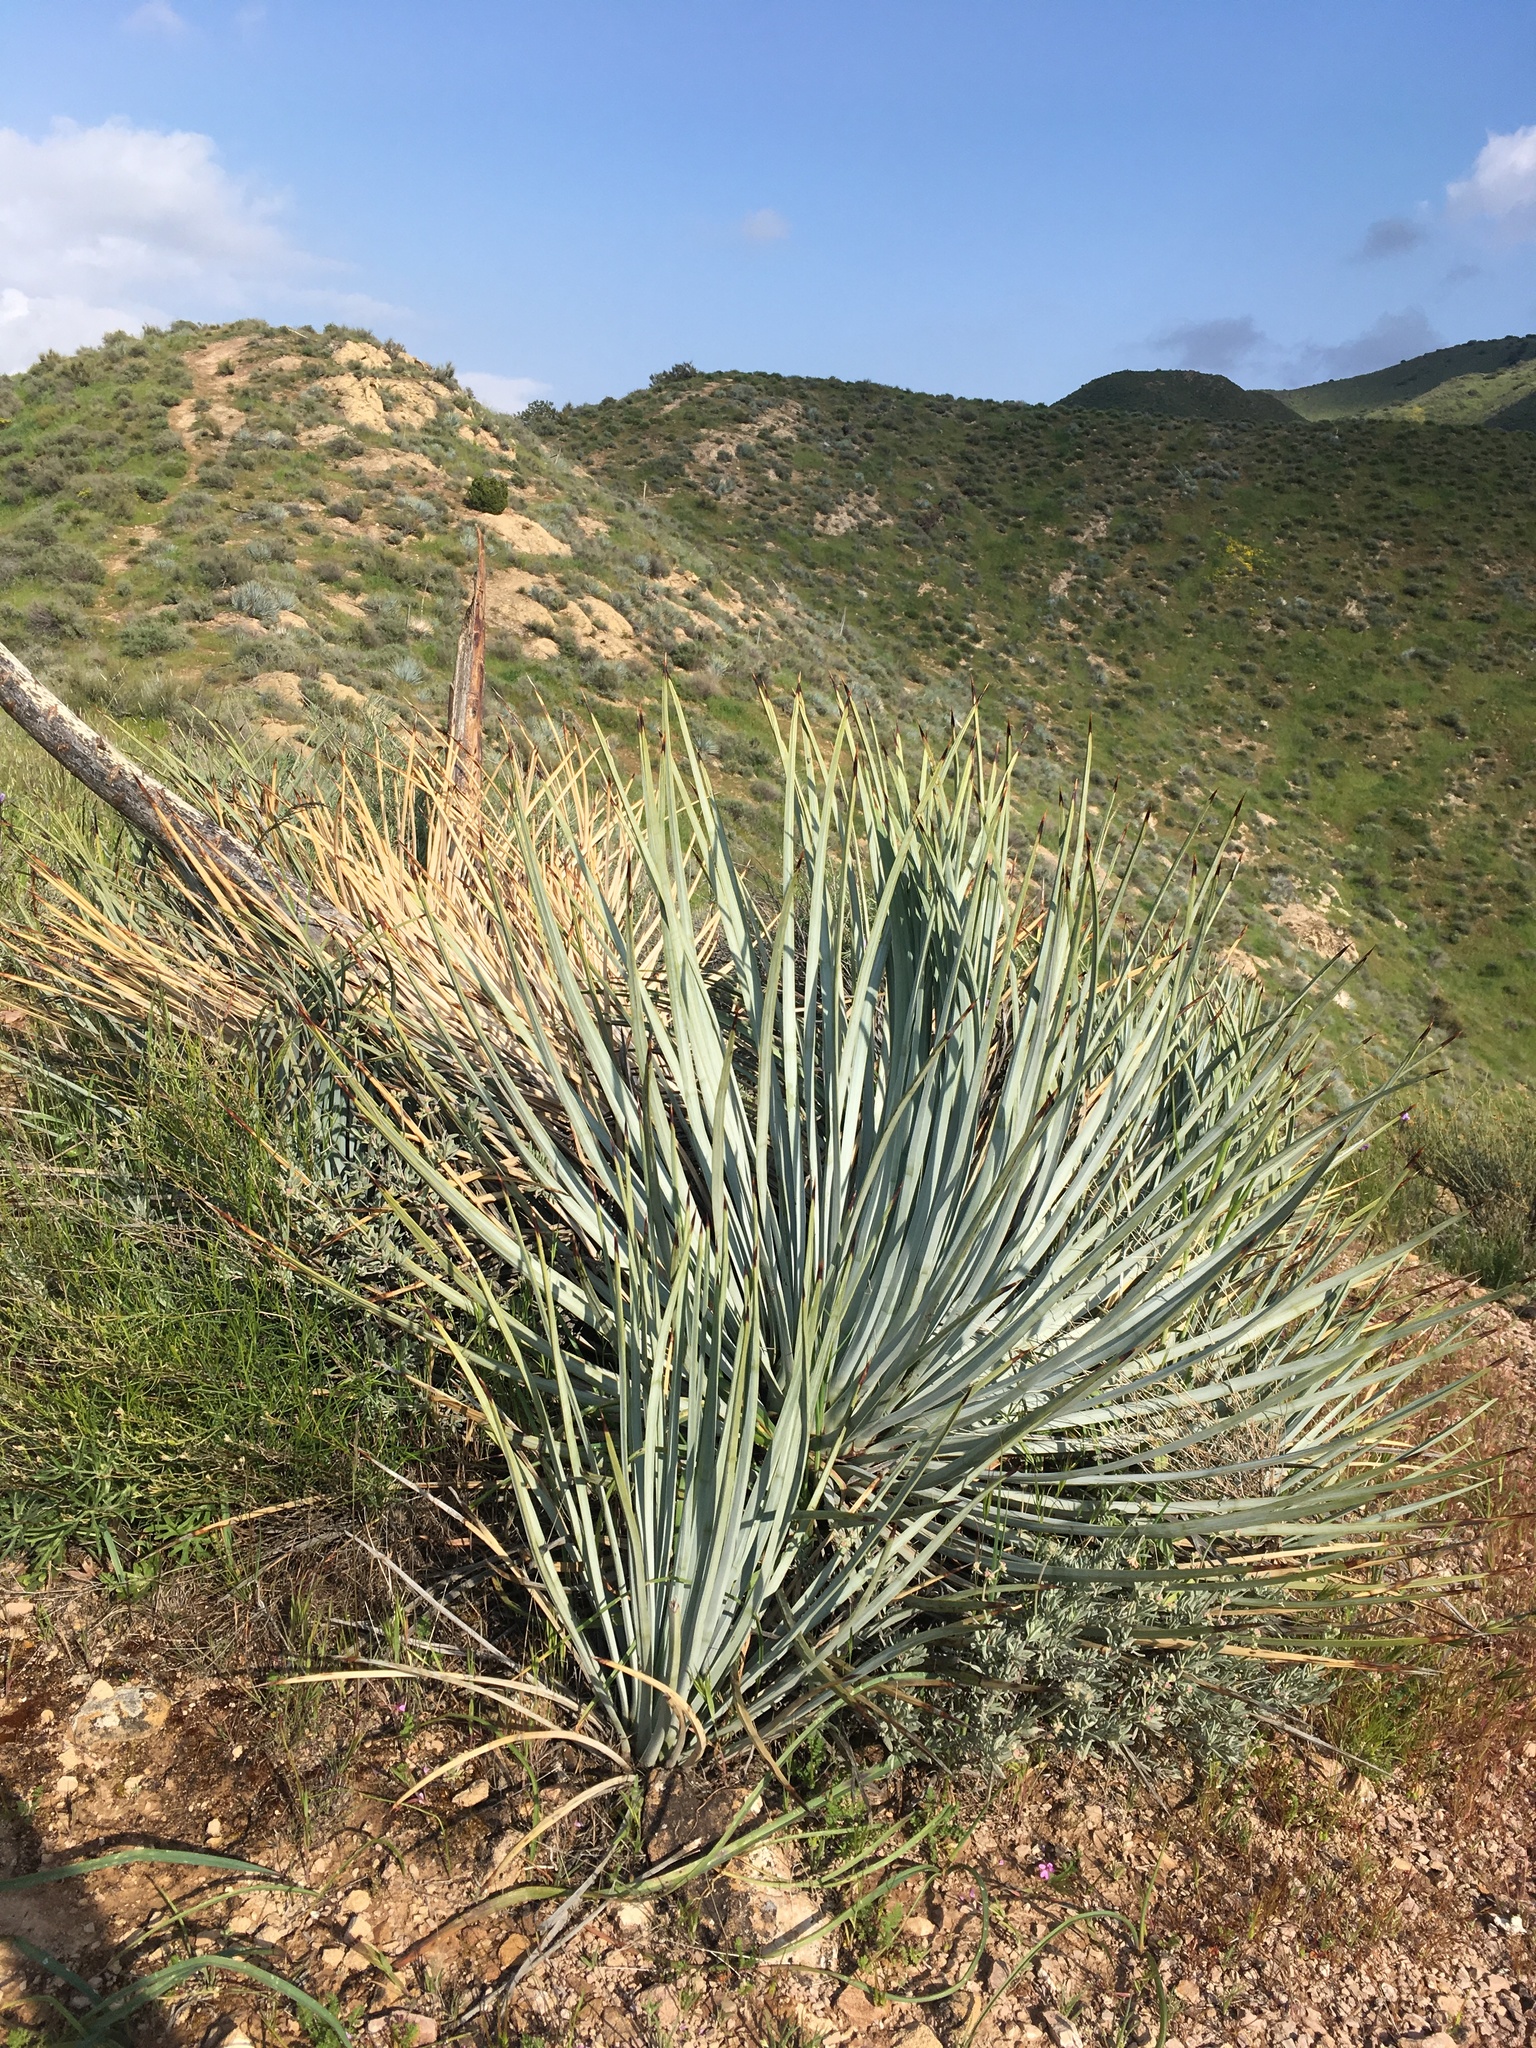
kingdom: Plantae
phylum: Tracheophyta
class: Liliopsida
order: Asparagales
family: Asparagaceae
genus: Hesperoyucca
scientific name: Hesperoyucca whipplei
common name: Our lord's-candle
